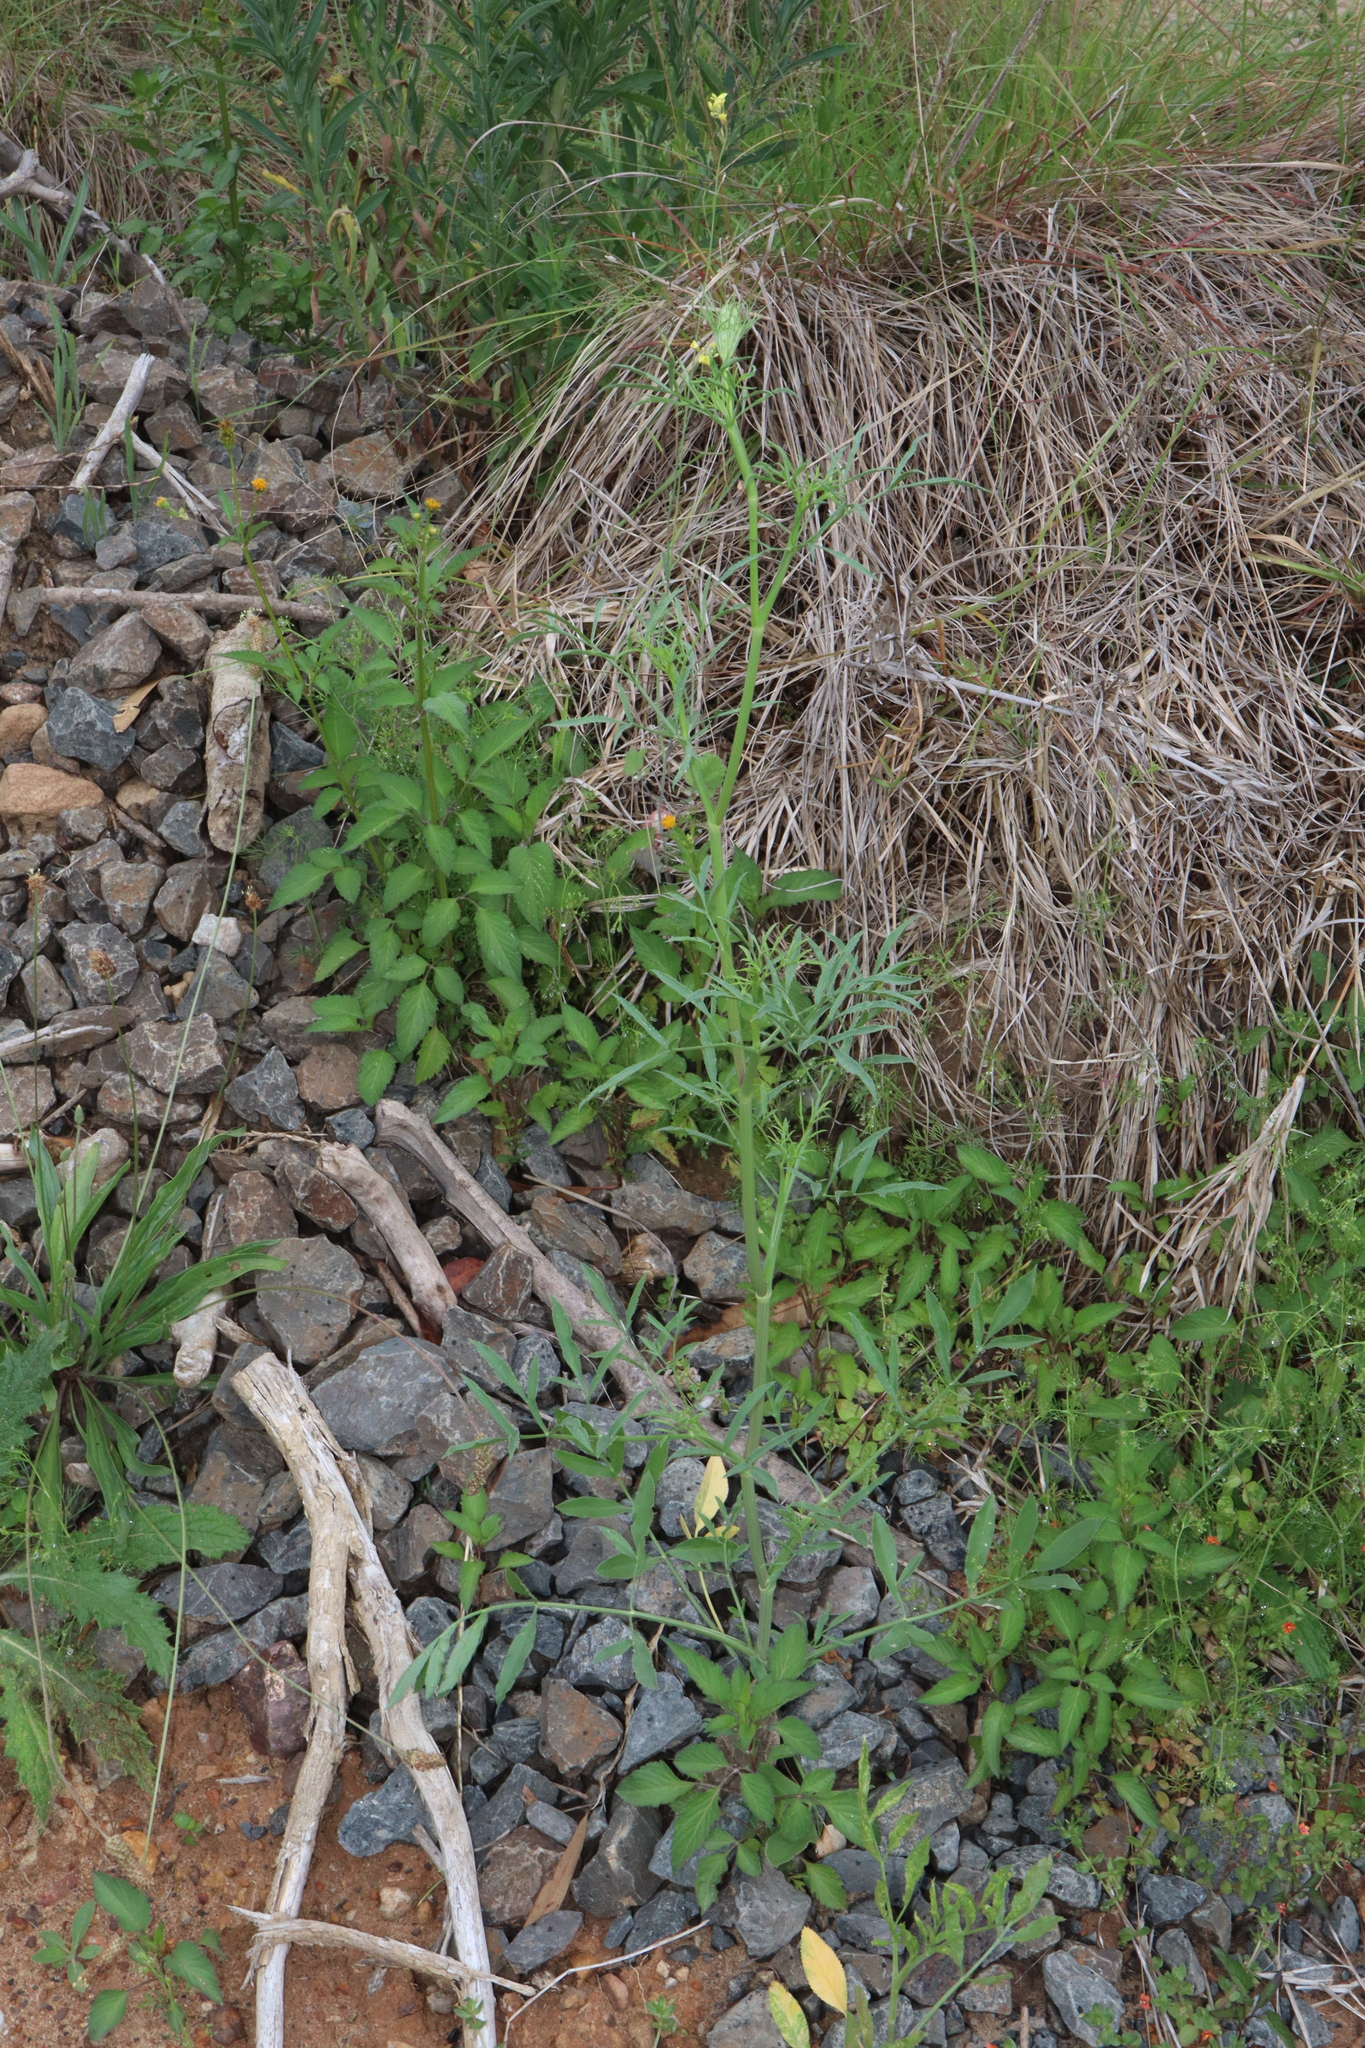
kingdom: Plantae
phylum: Tracheophyta
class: Magnoliopsida
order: Apiales
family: Apiaceae
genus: Ammi
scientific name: Ammi majus
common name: Bullwort
